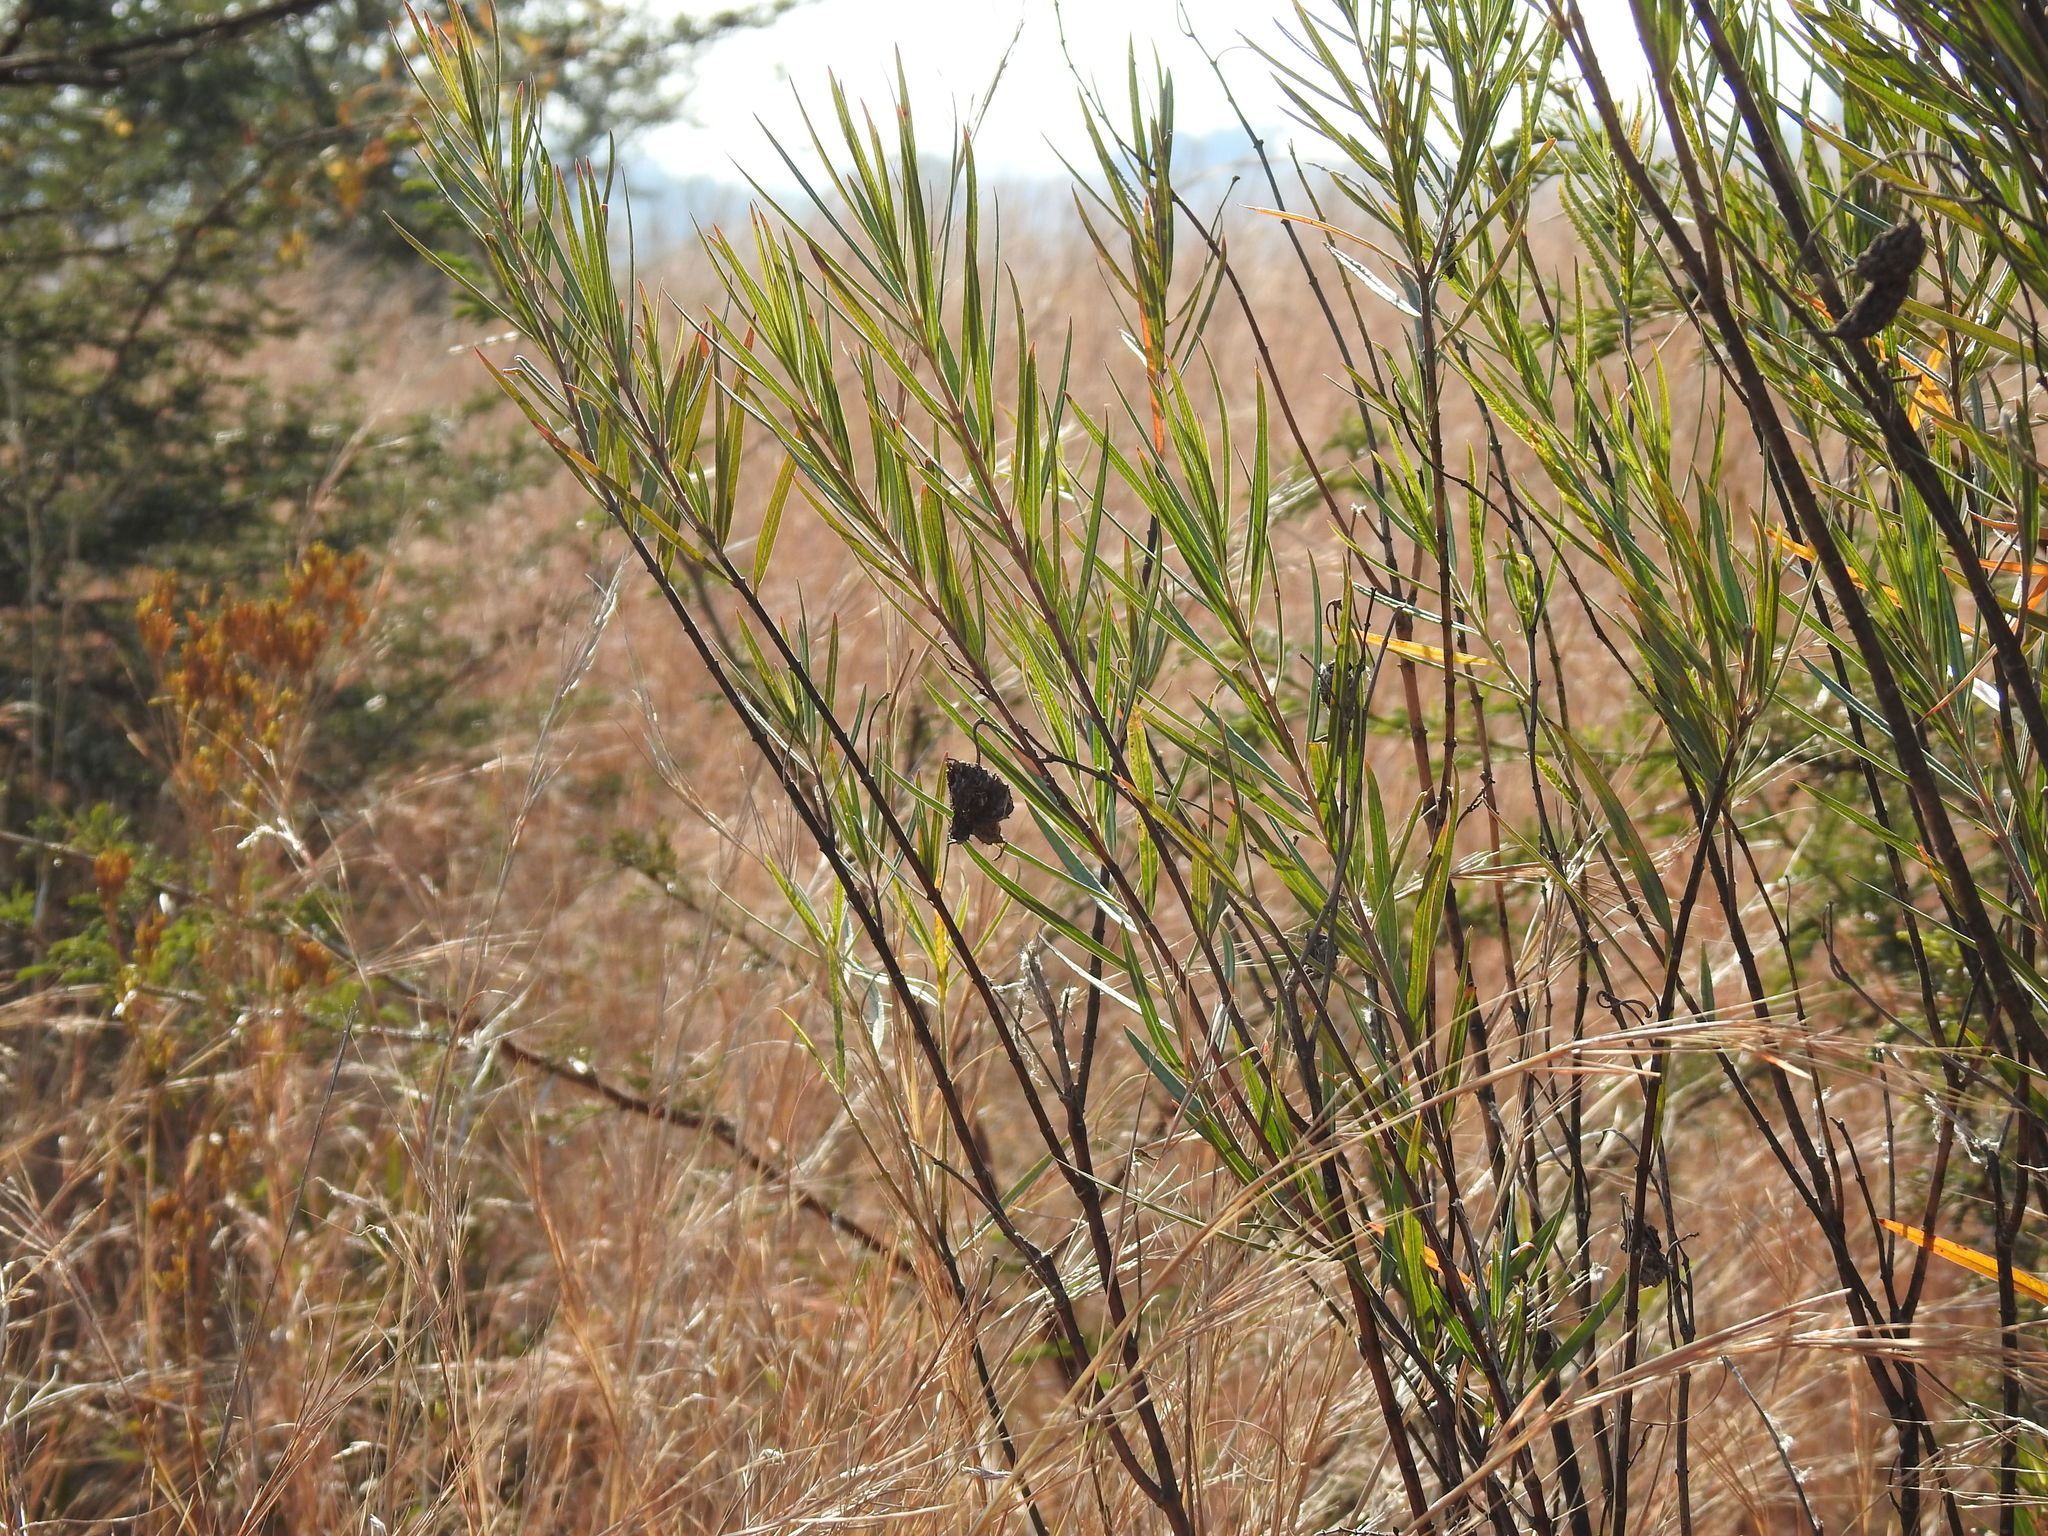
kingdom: Plantae
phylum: Tracheophyta
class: Magnoliopsida
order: Gentianales
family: Apocynaceae
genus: Gomphocarpus
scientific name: Gomphocarpus fruticosus
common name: Milkweed
